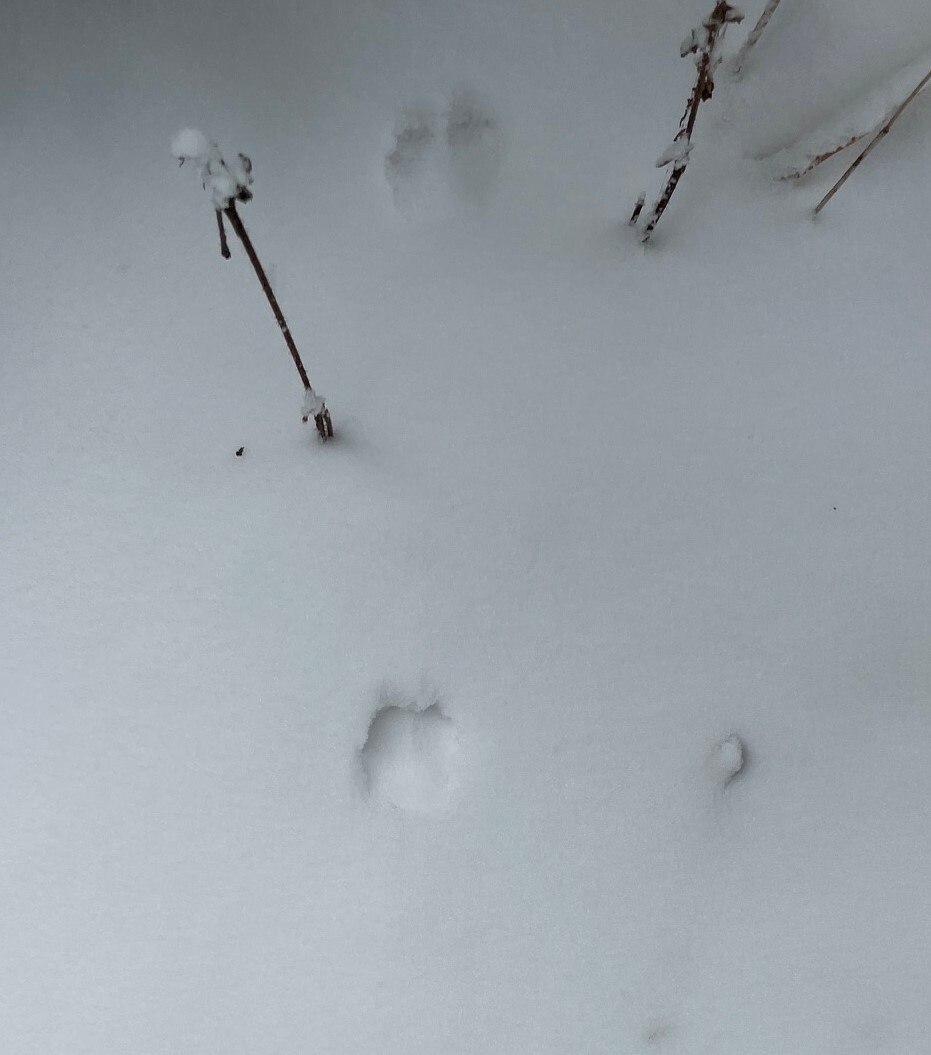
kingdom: Animalia
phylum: Chordata
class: Mammalia
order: Artiodactyla
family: Cervidae
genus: Capreolus
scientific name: Capreolus capreolus
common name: Western roe deer
